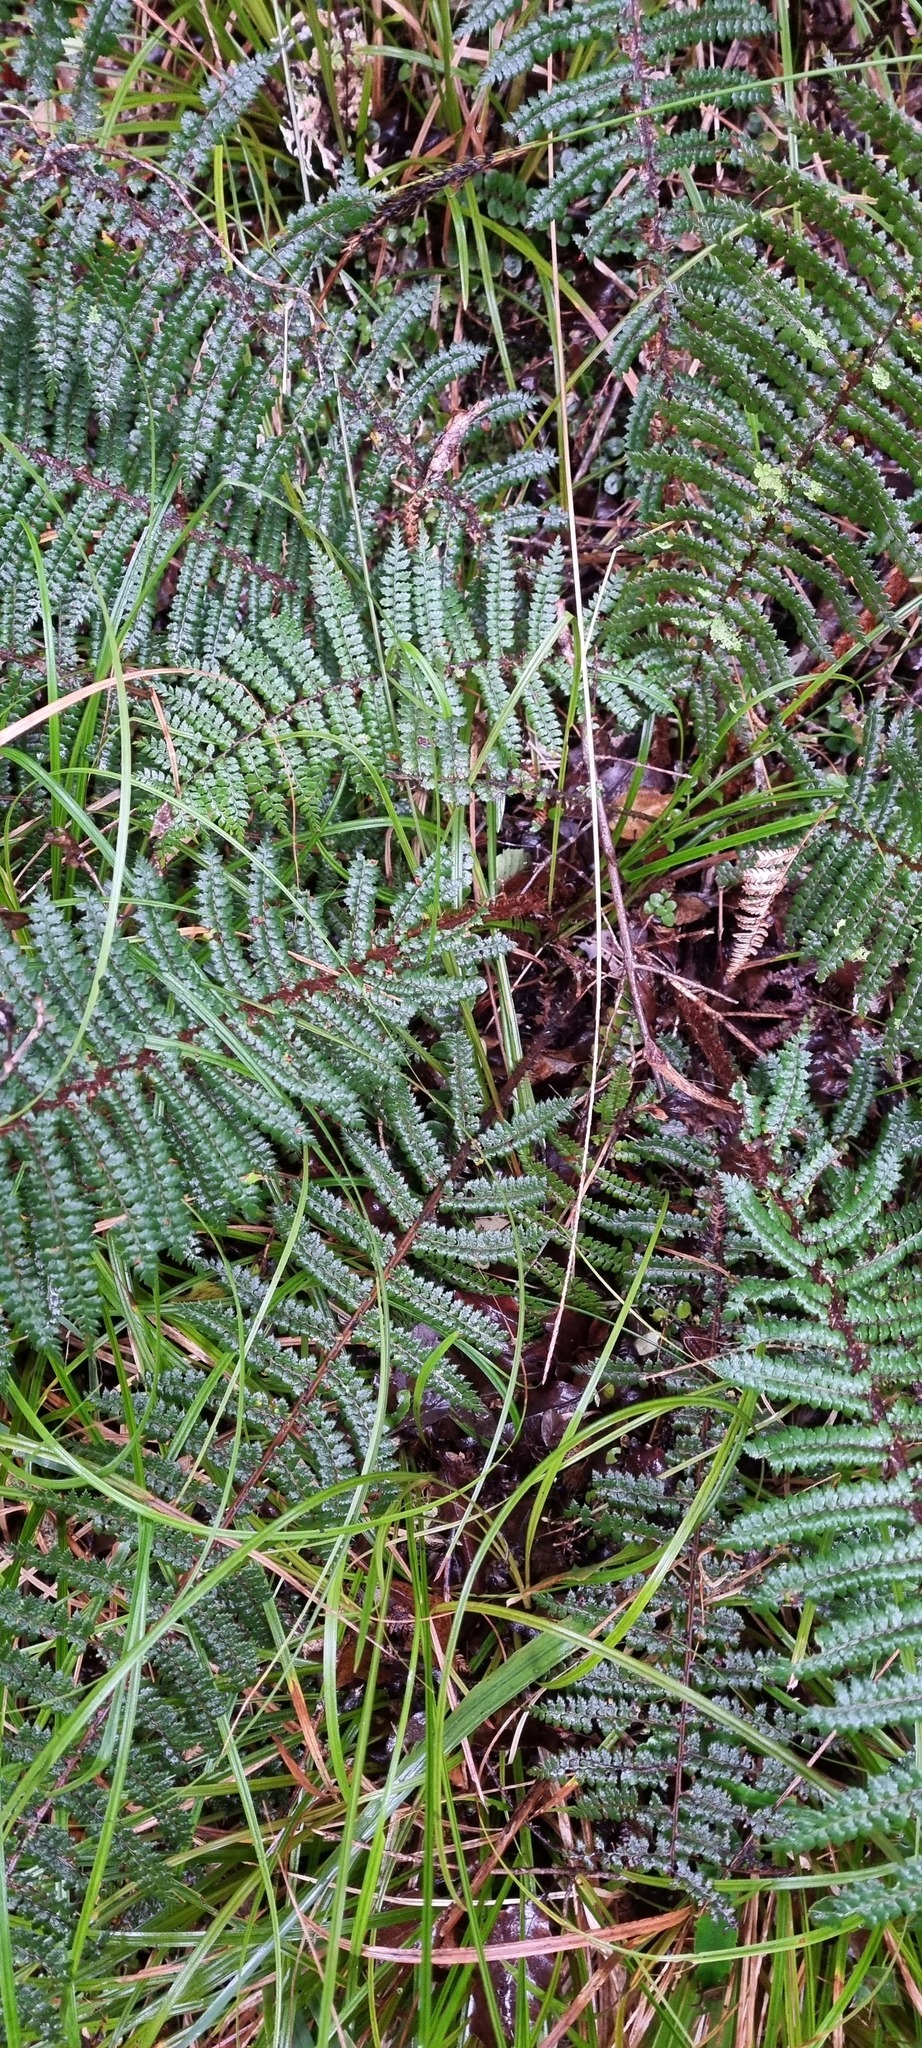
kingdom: Plantae
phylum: Tracheophyta
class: Polypodiopsida
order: Polypodiales
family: Dryopteridaceae
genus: Polystichum
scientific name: Polystichum vestitum
